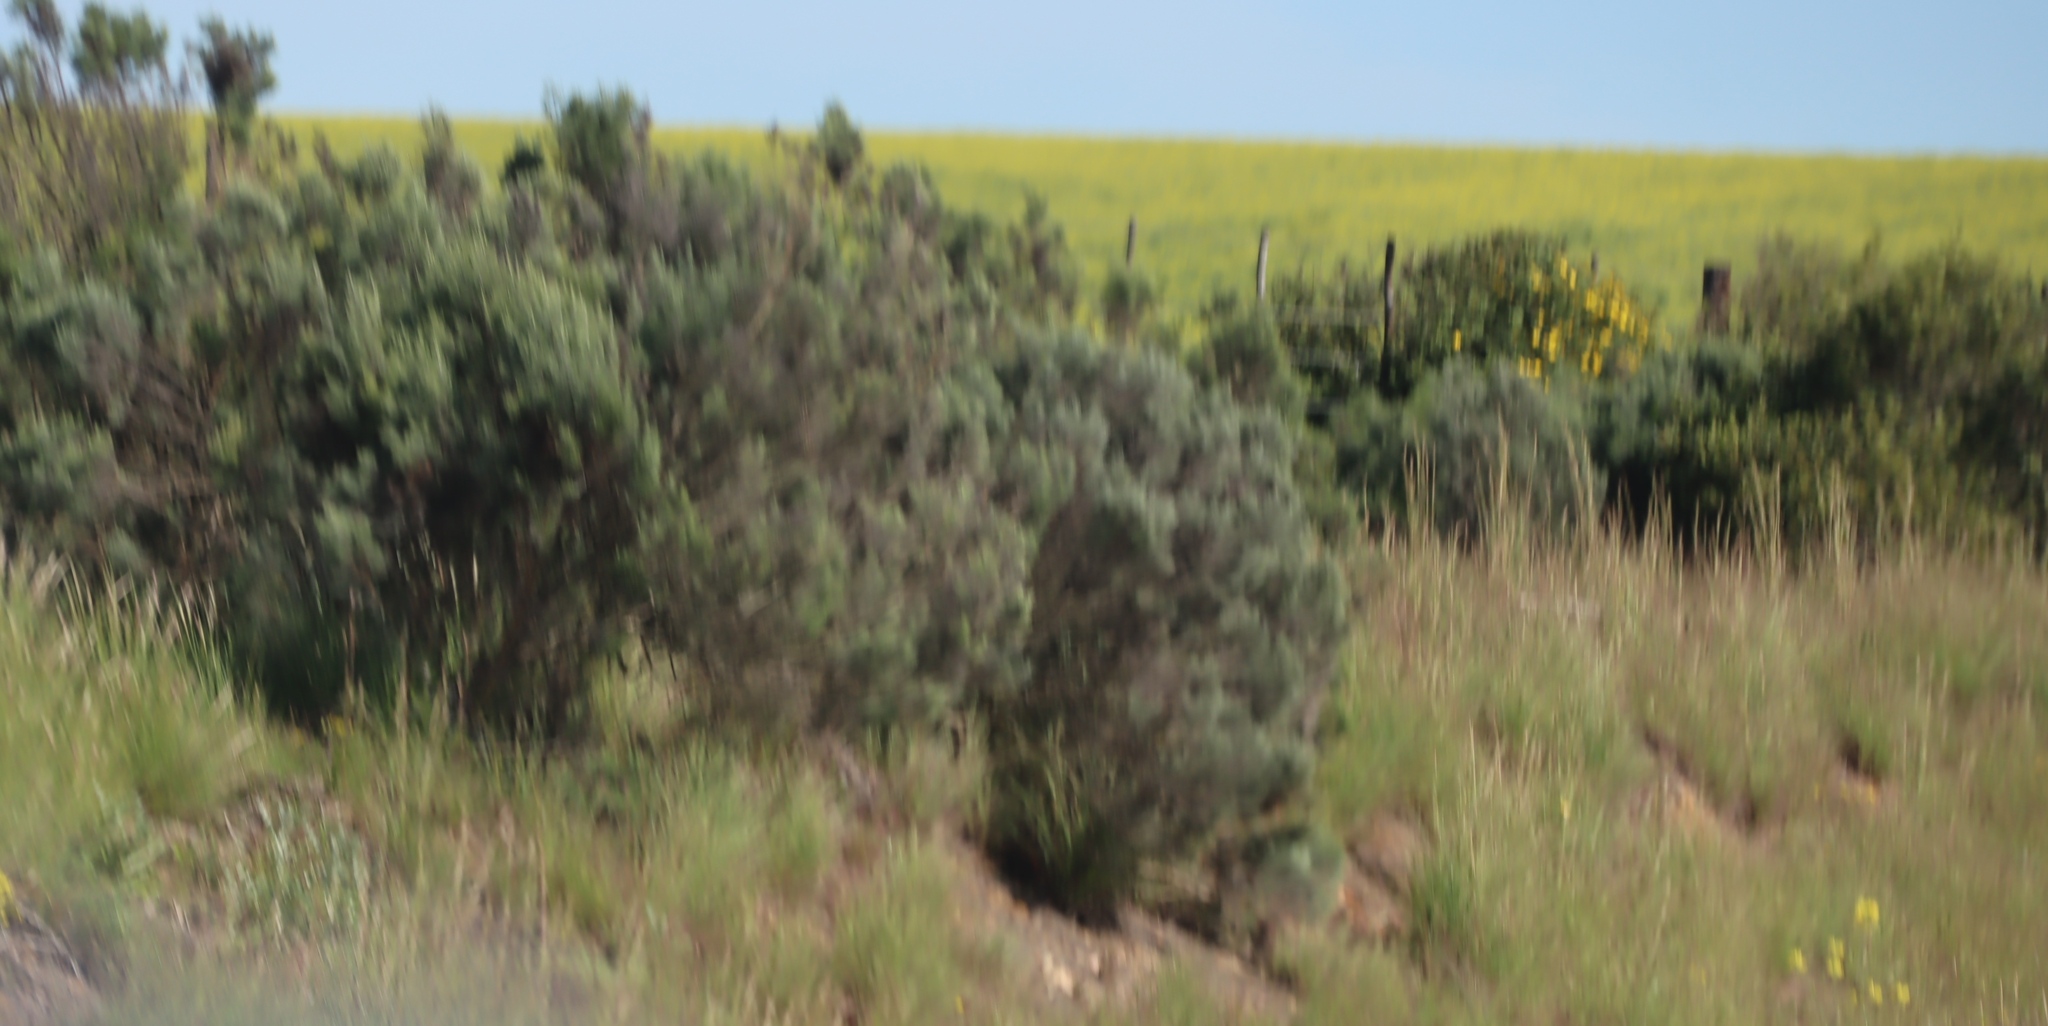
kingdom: Plantae
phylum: Tracheophyta
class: Magnoliopsida
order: Asterales
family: Asteraceae
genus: Dicerothamnus
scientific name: Dicerothamnus rhinocerotis
